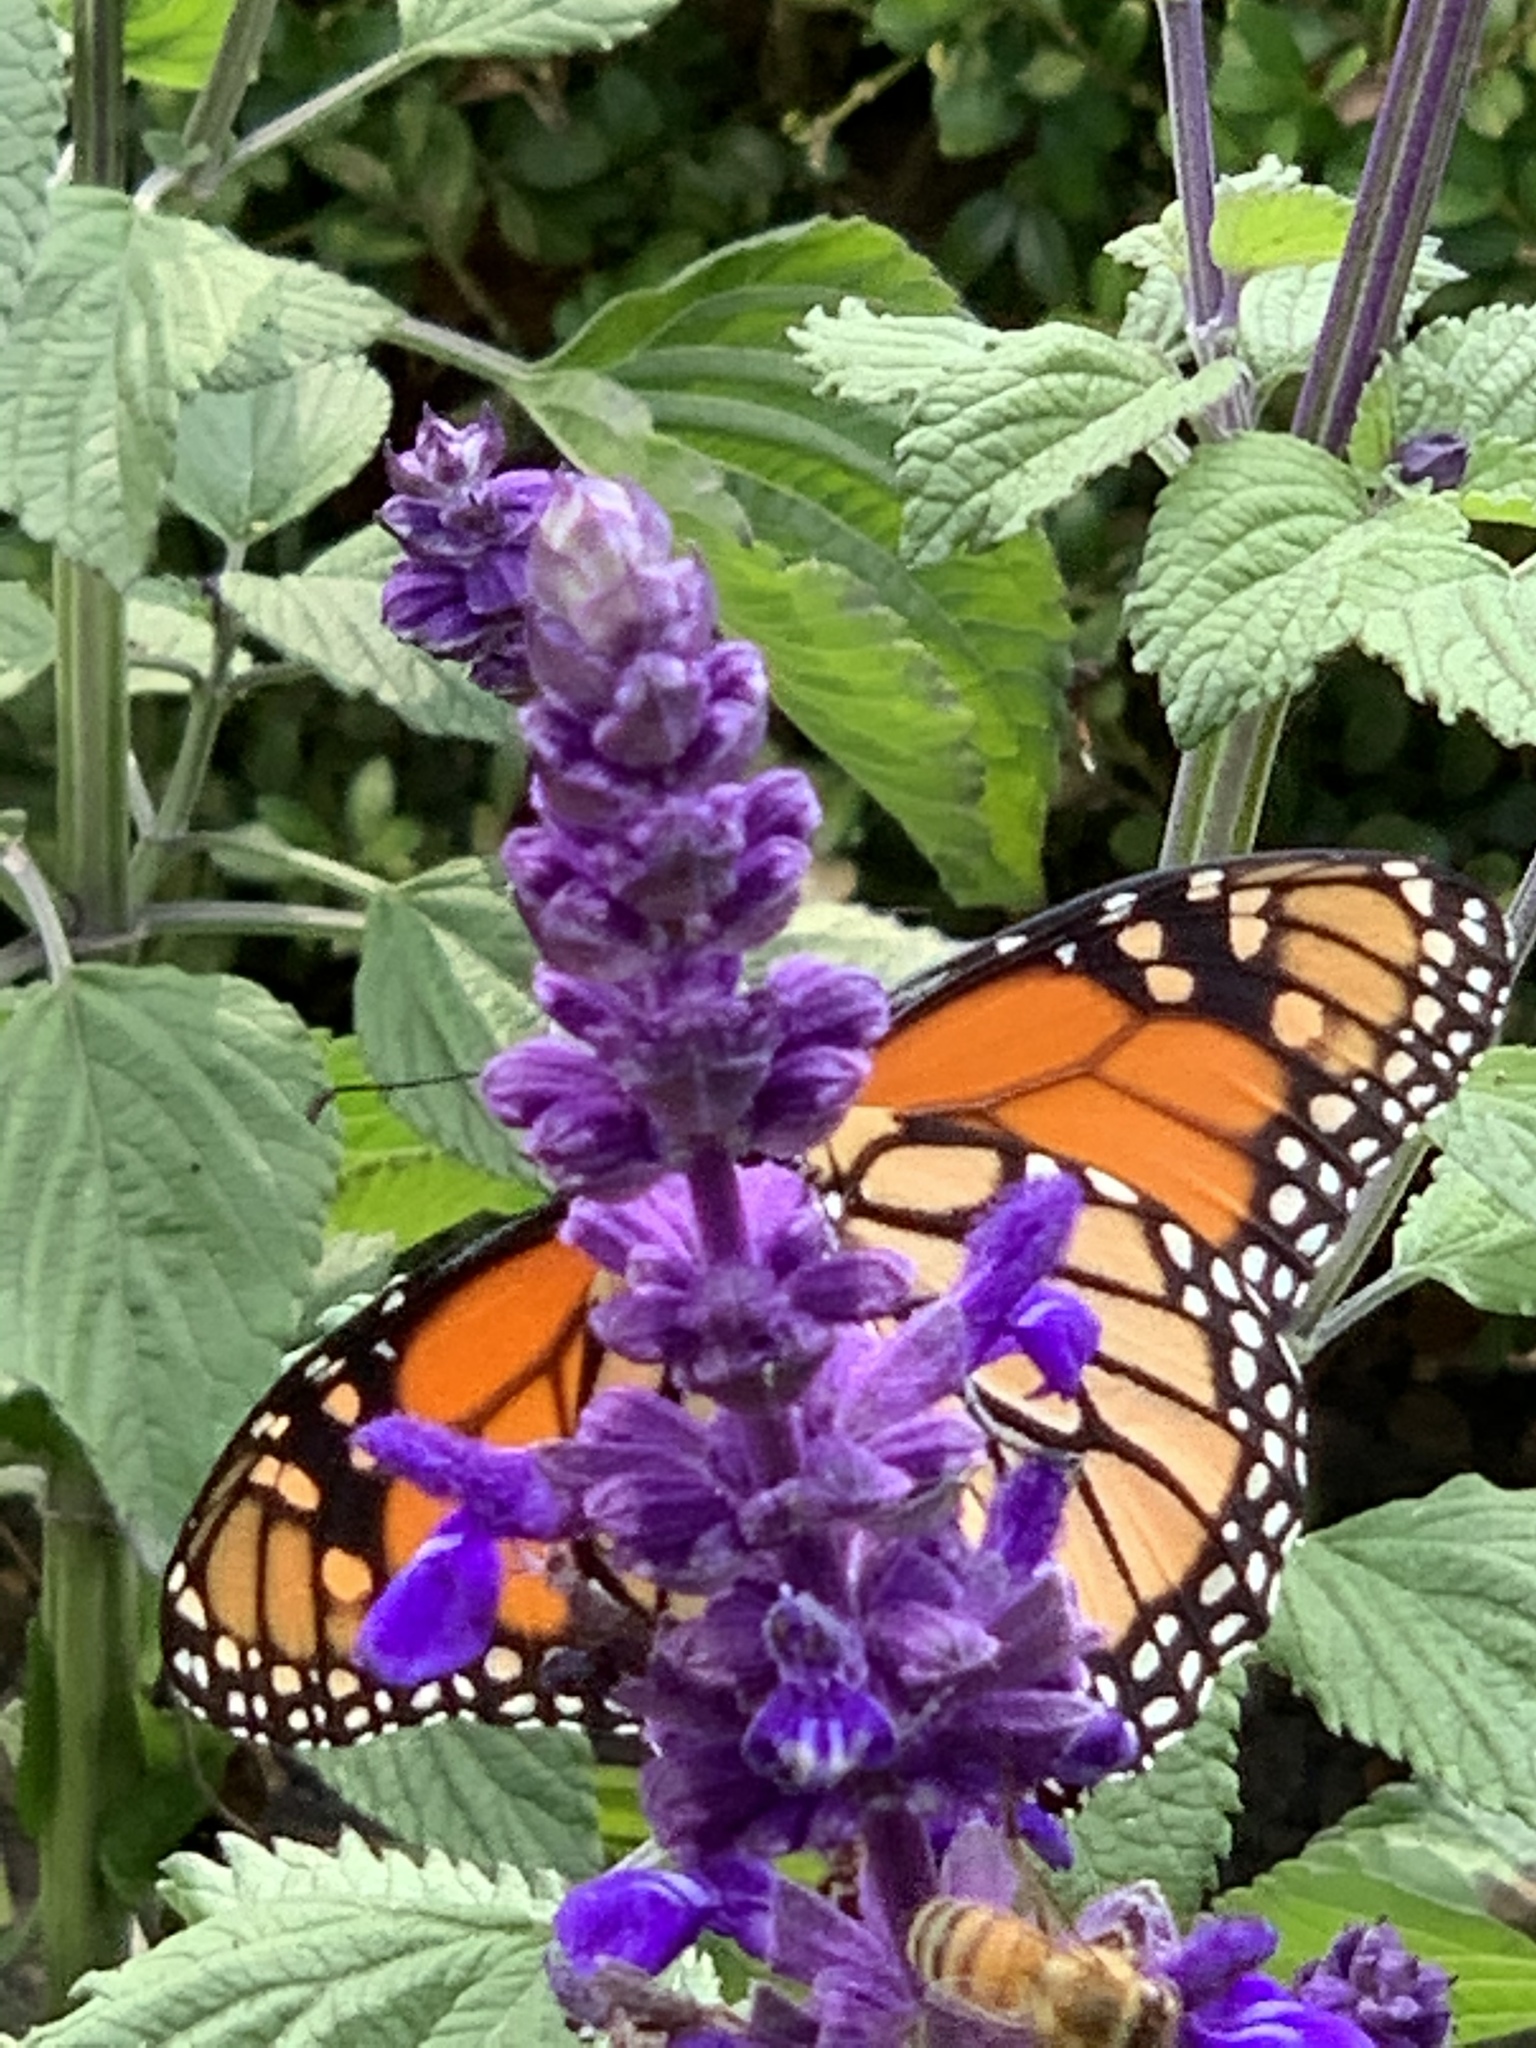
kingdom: Animalia
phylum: Arthropoda
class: Insecta
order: Lepidoptera
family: Nymphalidae
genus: Danaus
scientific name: Danaus plexippus
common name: Monarch
